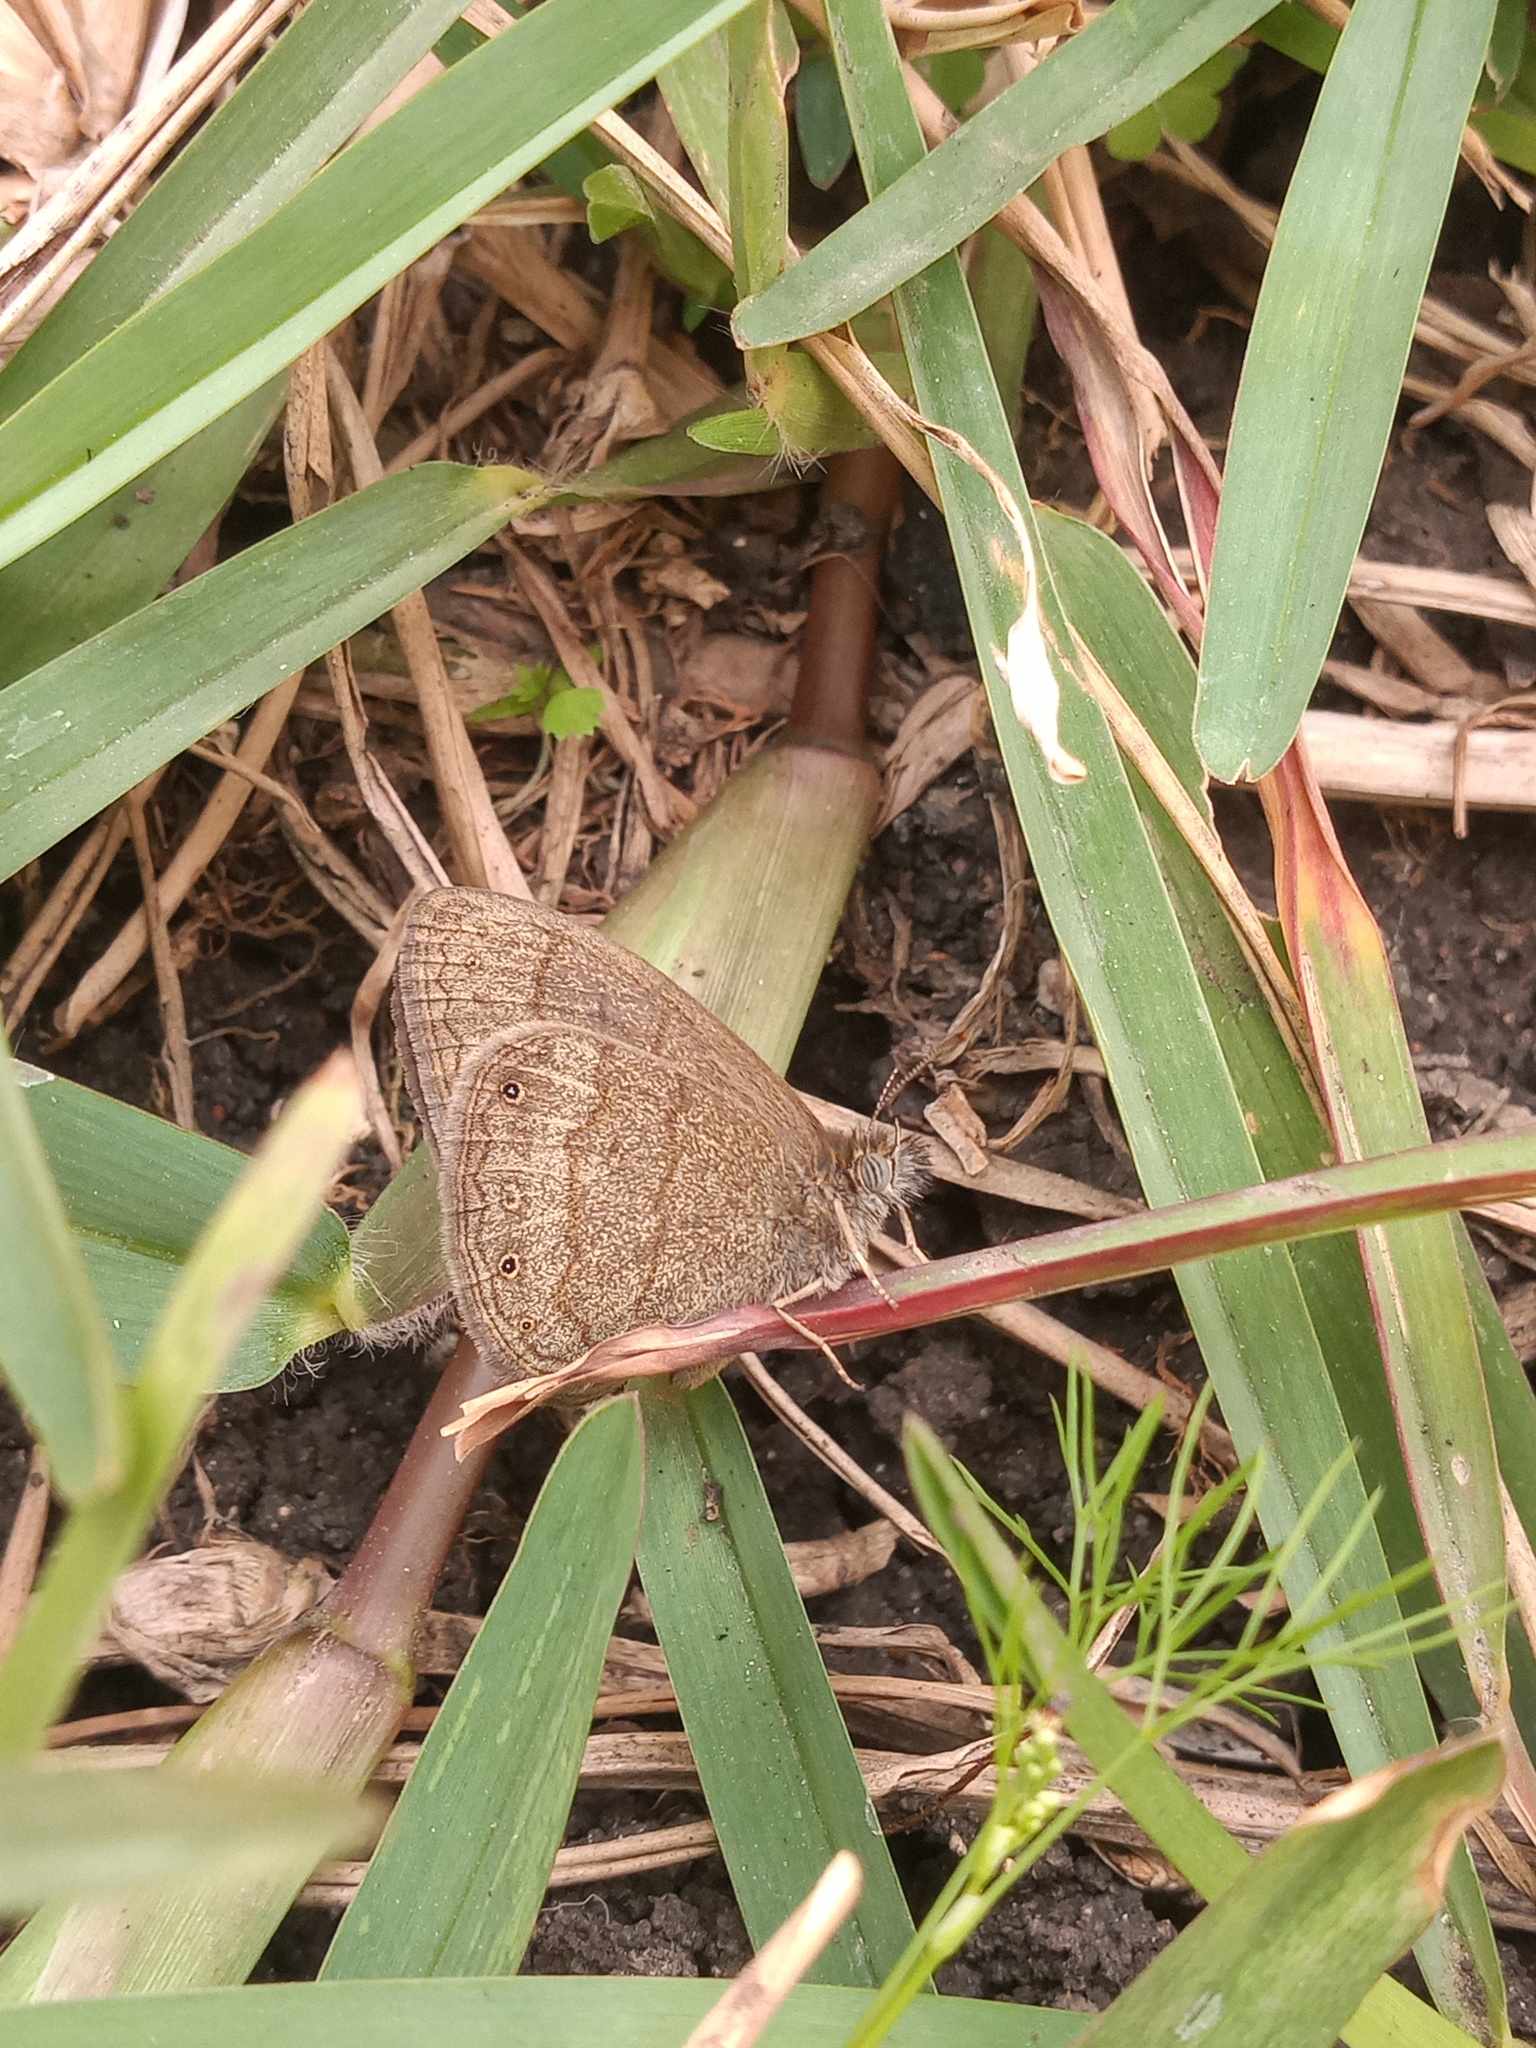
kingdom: Animalia
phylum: Arthropoda
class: Insecta
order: Lepidoptera
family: Nymphalidae
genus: Hermeuptychia
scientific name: Hermeuptychia hermybius
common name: South texas satyr
